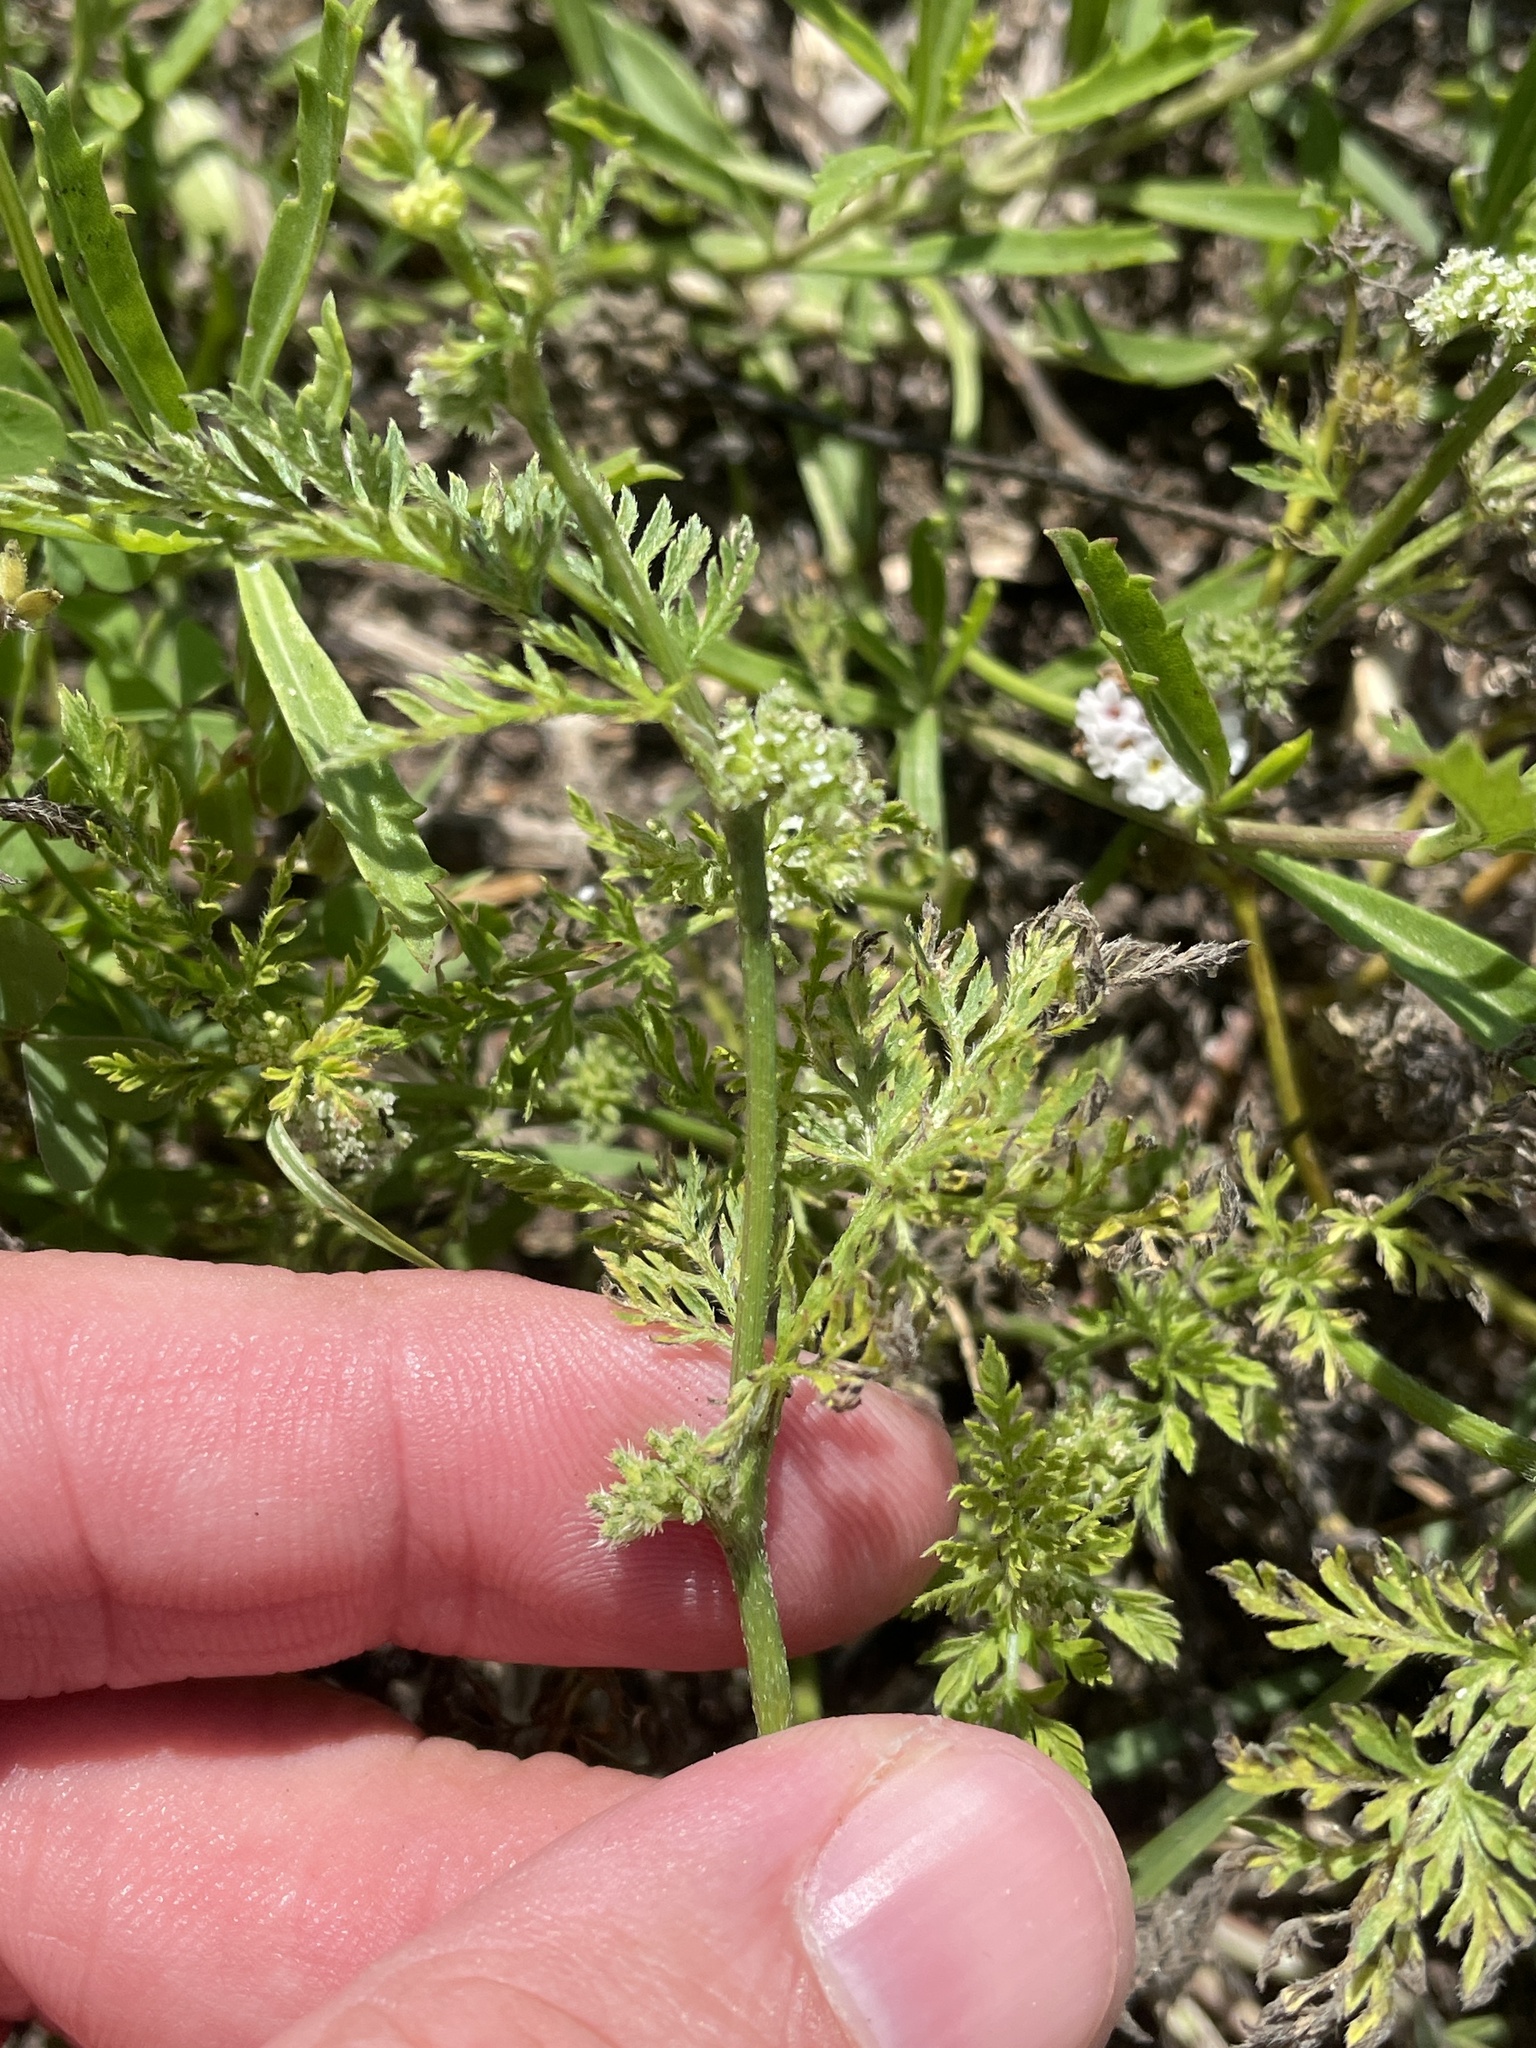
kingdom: Plantae
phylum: Tracheophyta
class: Magnoliopsida
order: Apiales
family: Apiaceae
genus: Torilis
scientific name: Torilis nodosa
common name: Knotted hedge-parsley
